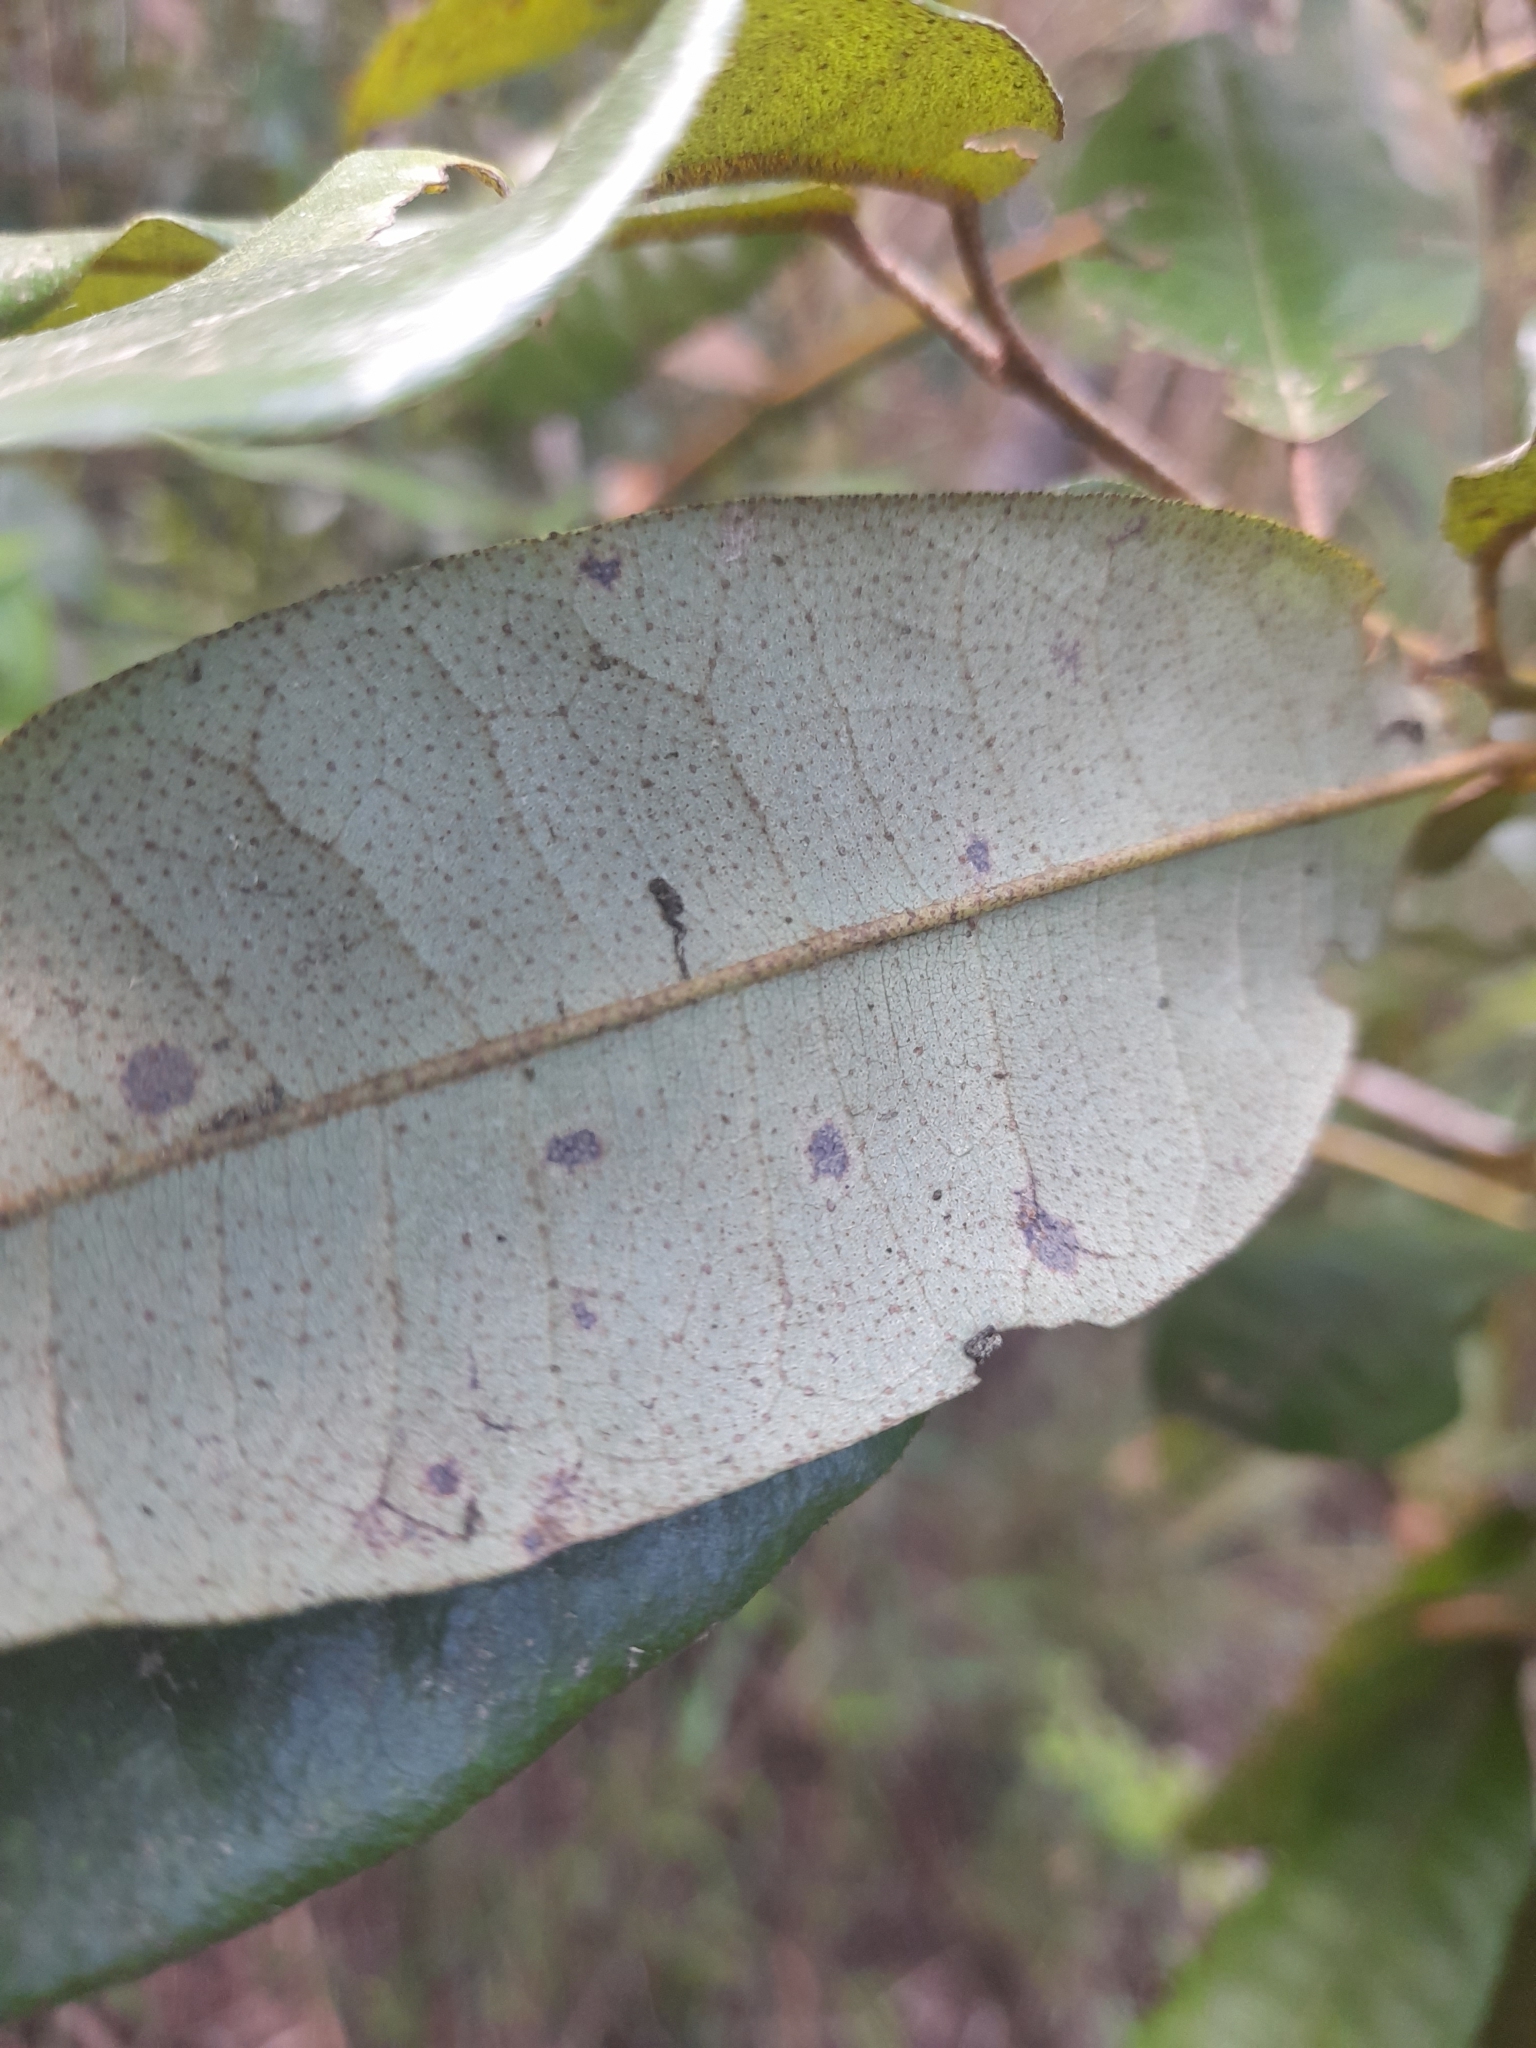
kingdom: Plantae
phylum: Tracheophyta
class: Magnoliopsida
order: Berberidopsidales
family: Aextoxicaceae
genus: Aextoxicon
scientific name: Aextoxicon punctatum
